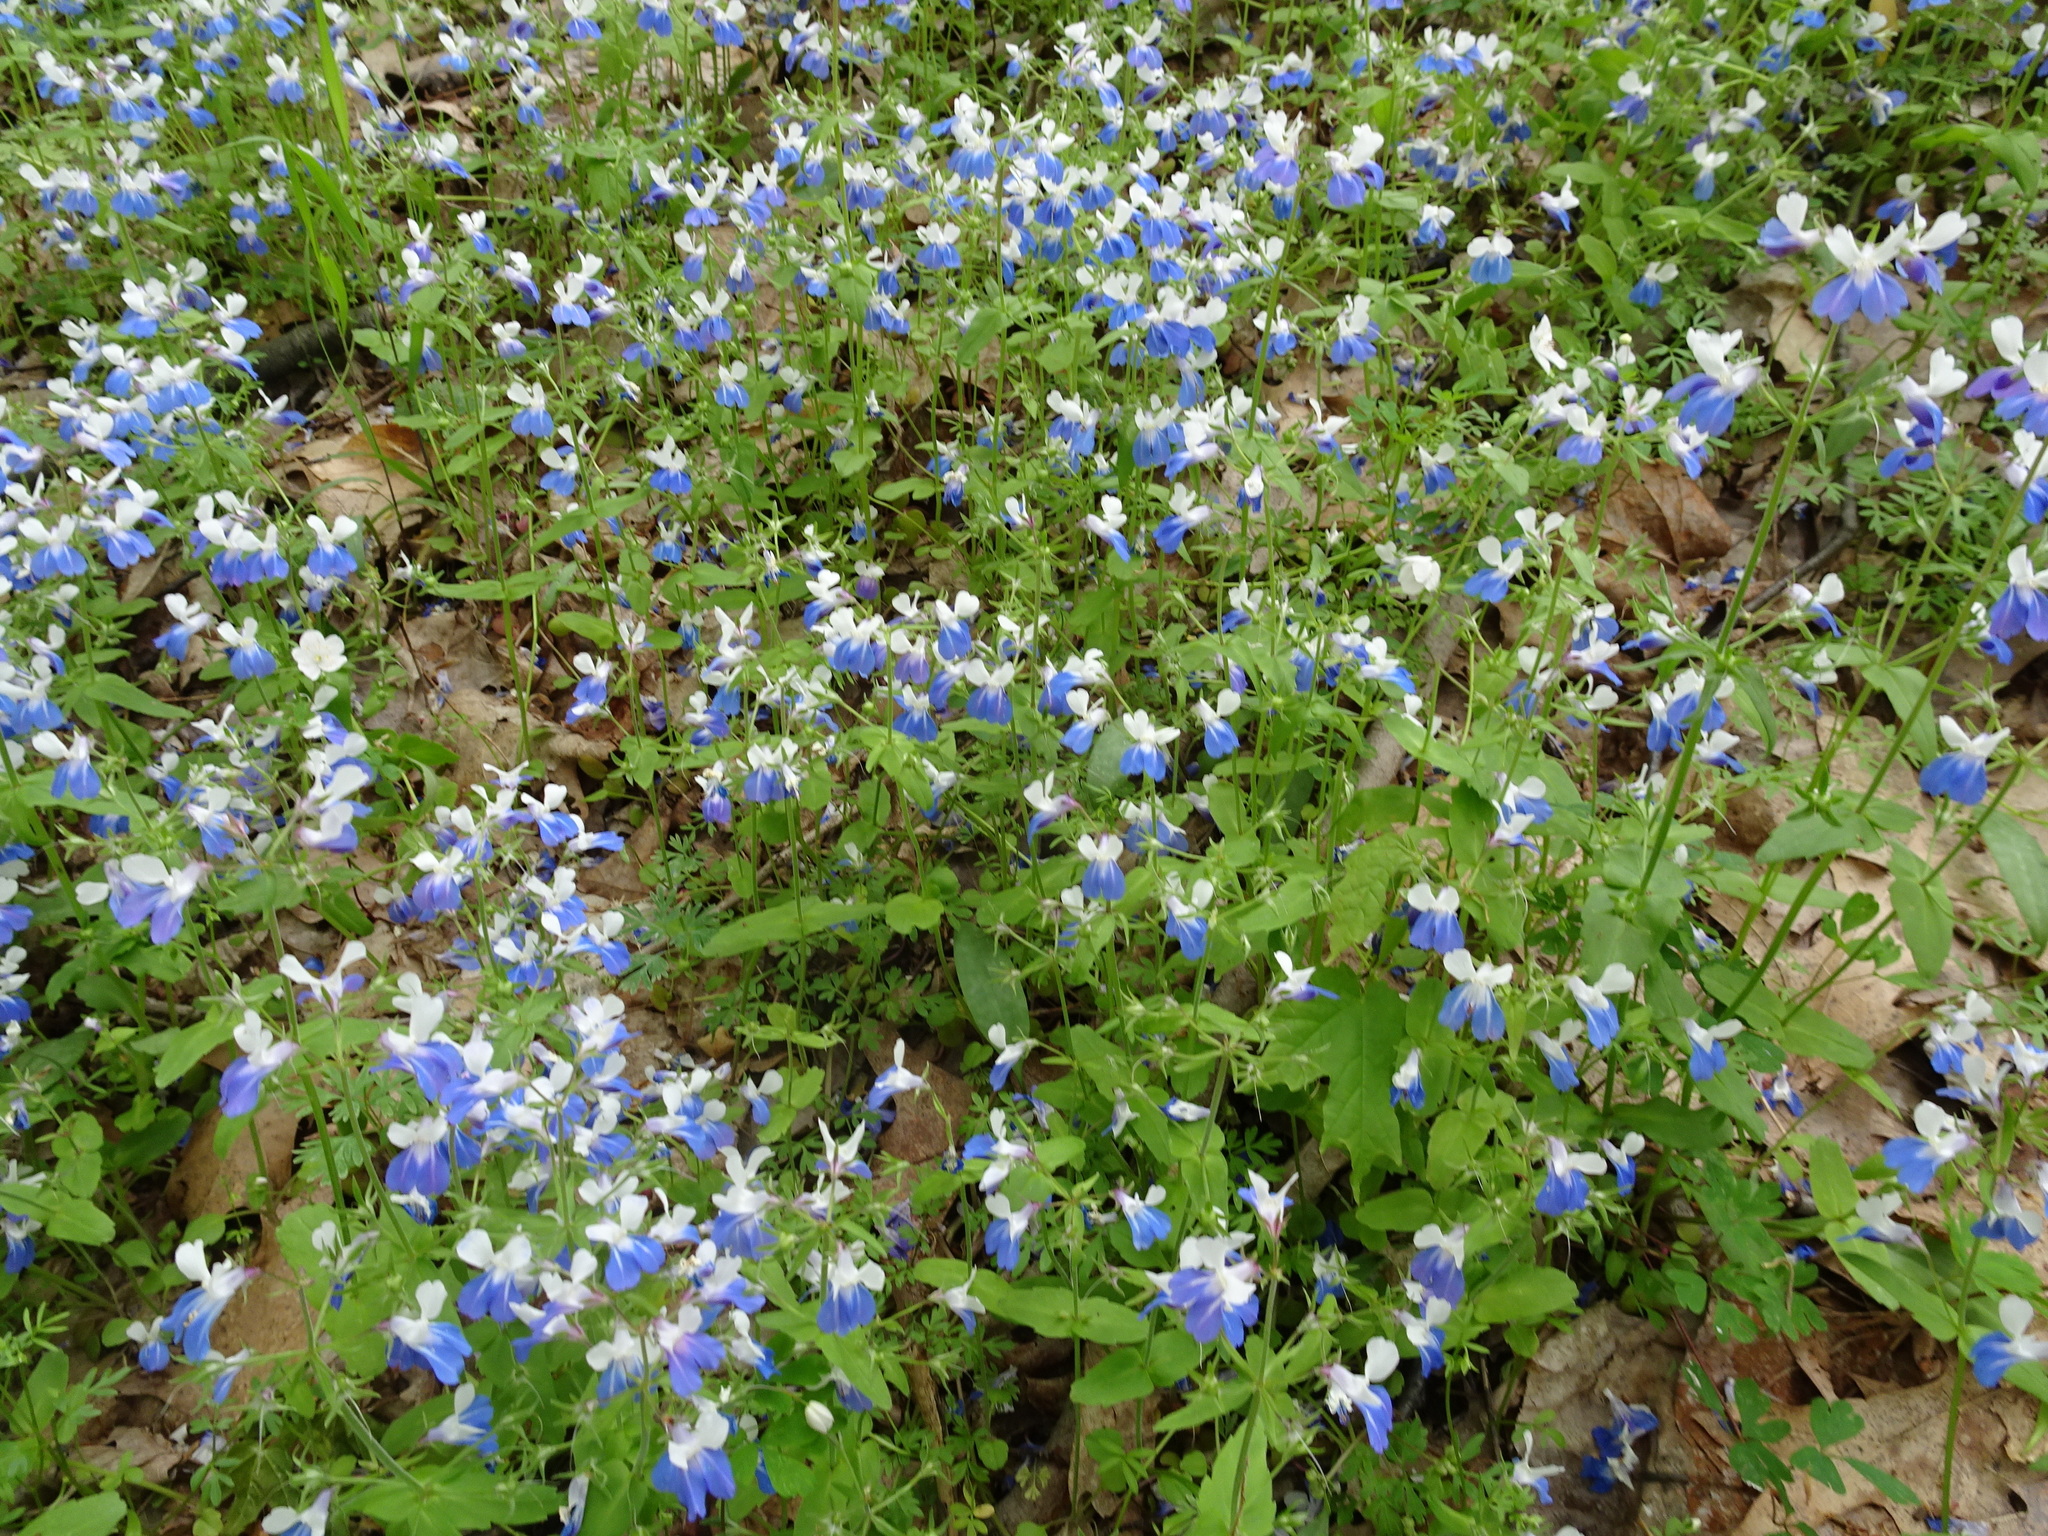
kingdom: Plantae
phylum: Tracheophyta
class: Magnoliopsida
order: Lamiales
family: Plantaginaceae
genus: Collinsia
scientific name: Collinsia verna
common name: Broad-leaved collinsia
